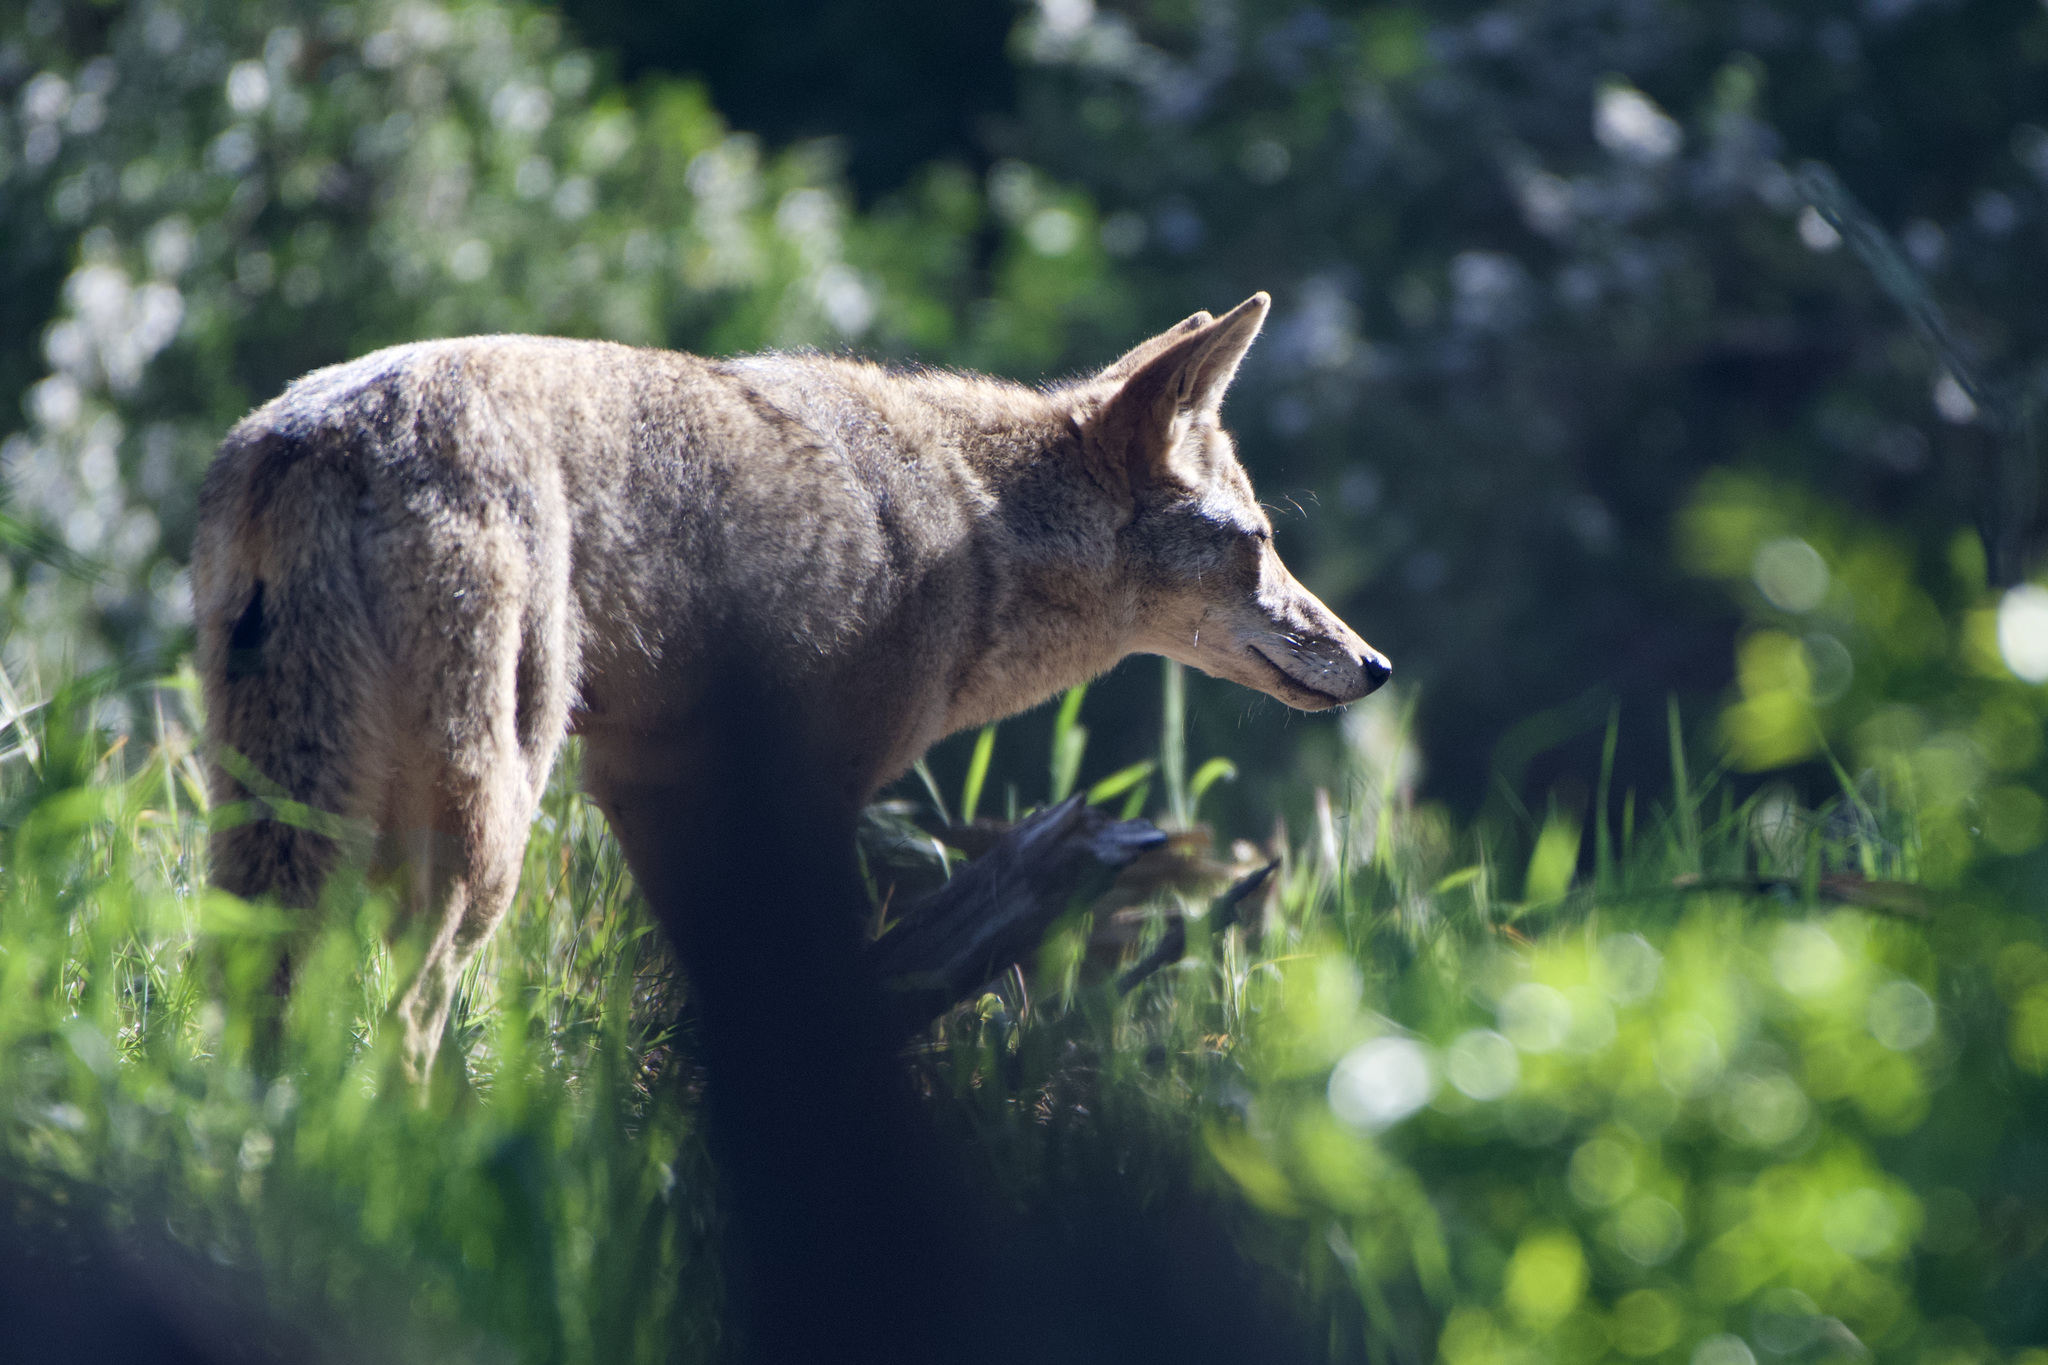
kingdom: Animalia
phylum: Chordata
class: Mammalia
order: Carnivora
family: Canidae
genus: Canis
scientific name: Canis latrans
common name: Coyote
